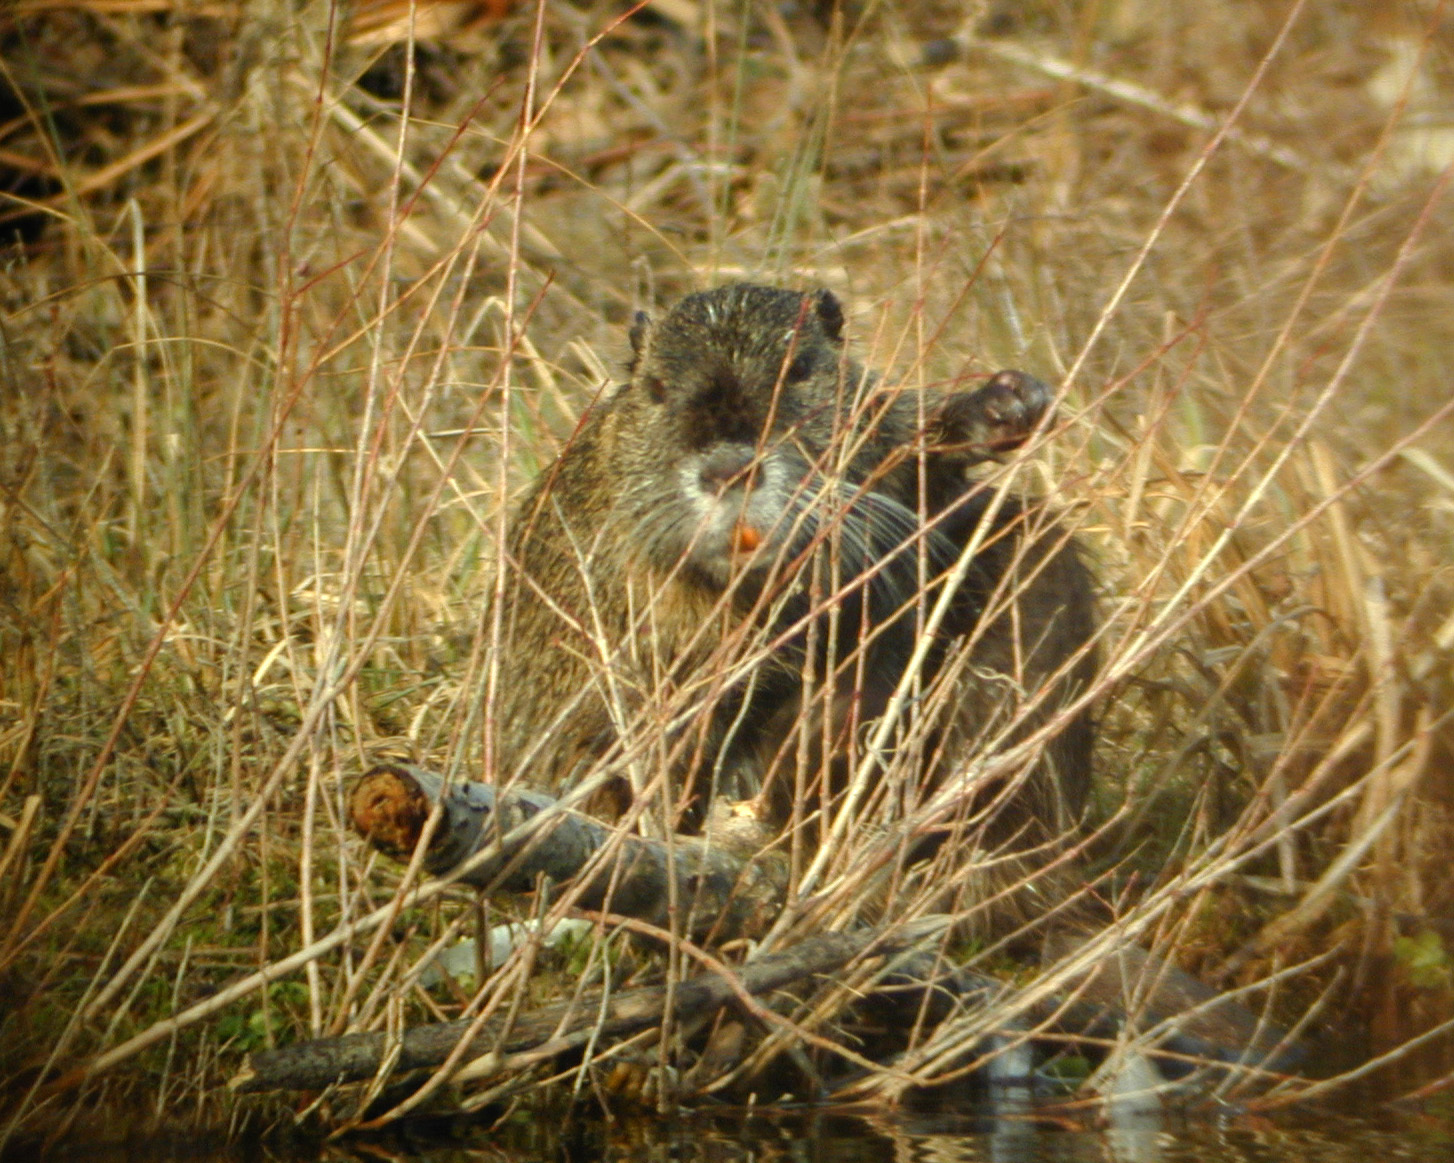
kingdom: Animalia
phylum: Chordata
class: Mammalia
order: Rodentia
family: Myocastoridae
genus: Myocastor
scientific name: Myocastor coypus
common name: Coypu
